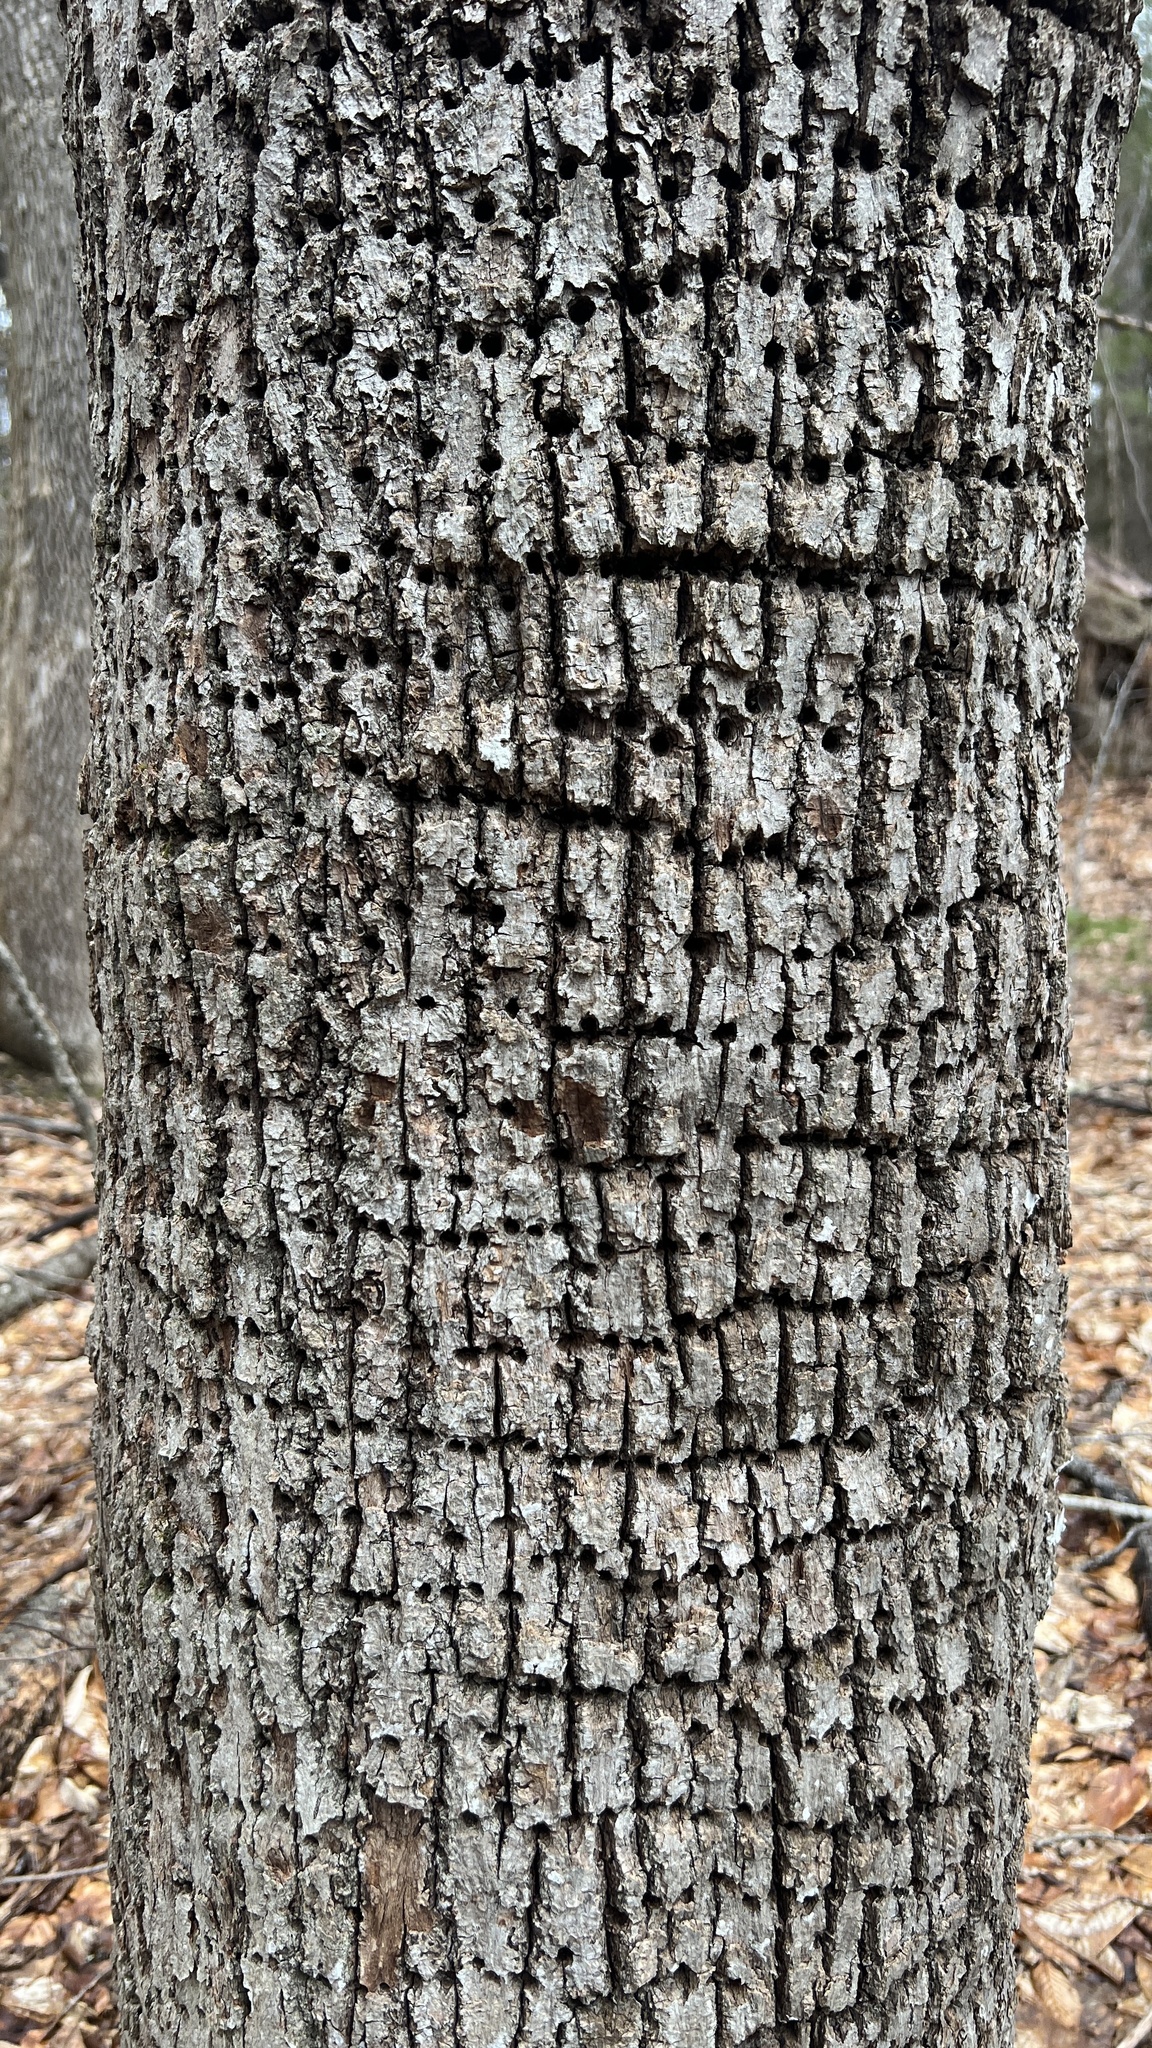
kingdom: Animalia
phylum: Chordata
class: Aves
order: Piciformes
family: Picidae
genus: Sphyrapicus
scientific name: Sphyrapicus varius
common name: Yellow-bellied sapsucker
